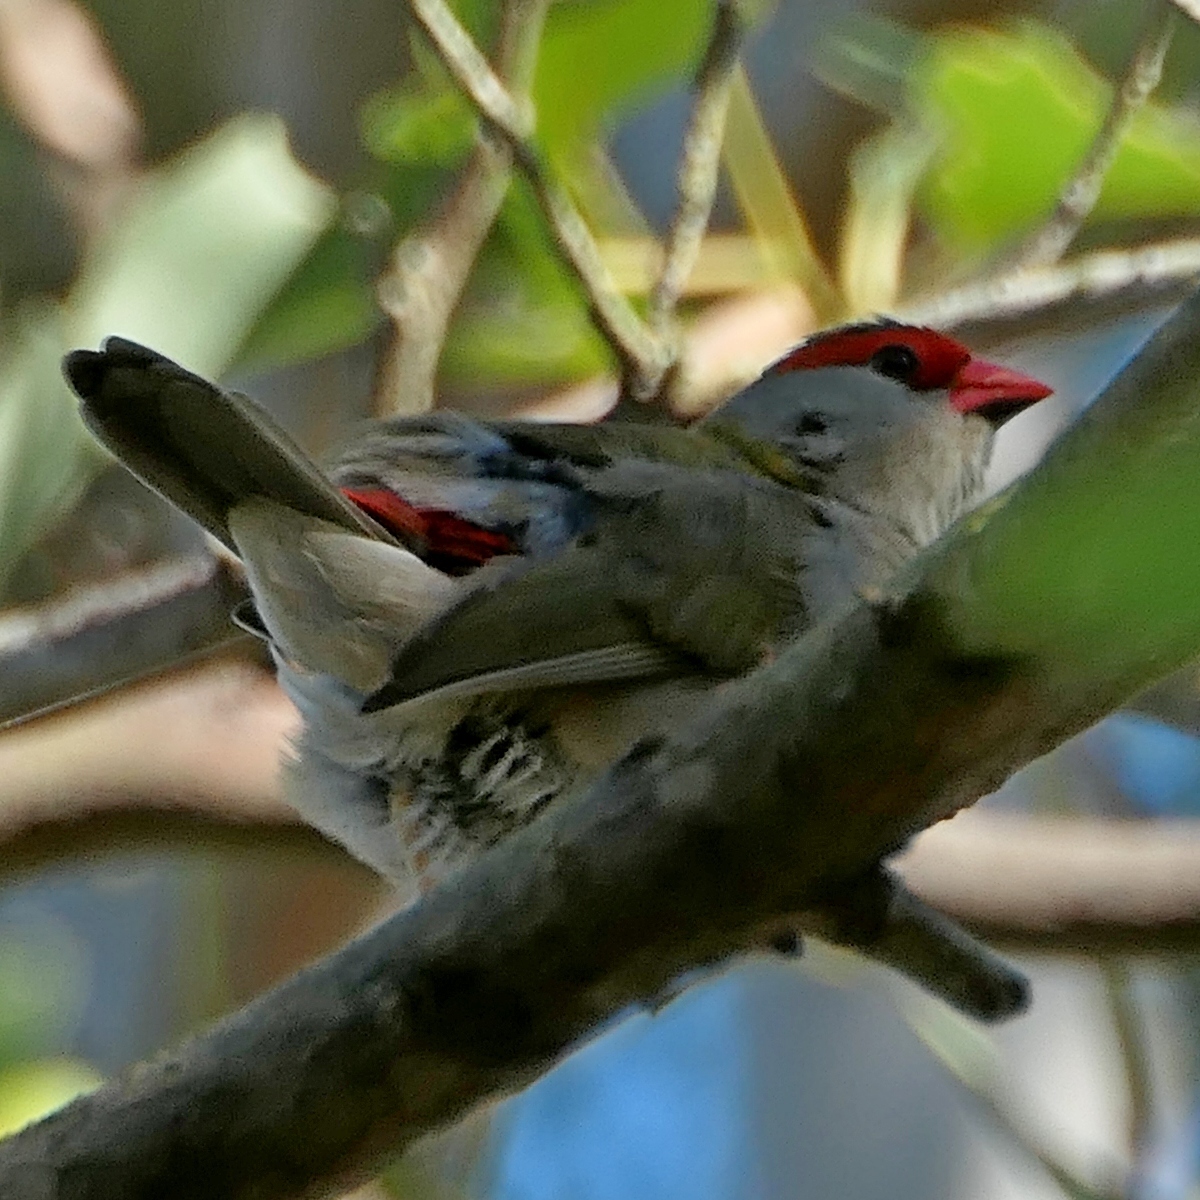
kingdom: Animalia
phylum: Chordata
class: Aves
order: Passeriformes
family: Estrildidae
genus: Neochmia
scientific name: Neochmia temporalis
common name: Red-browed finch
